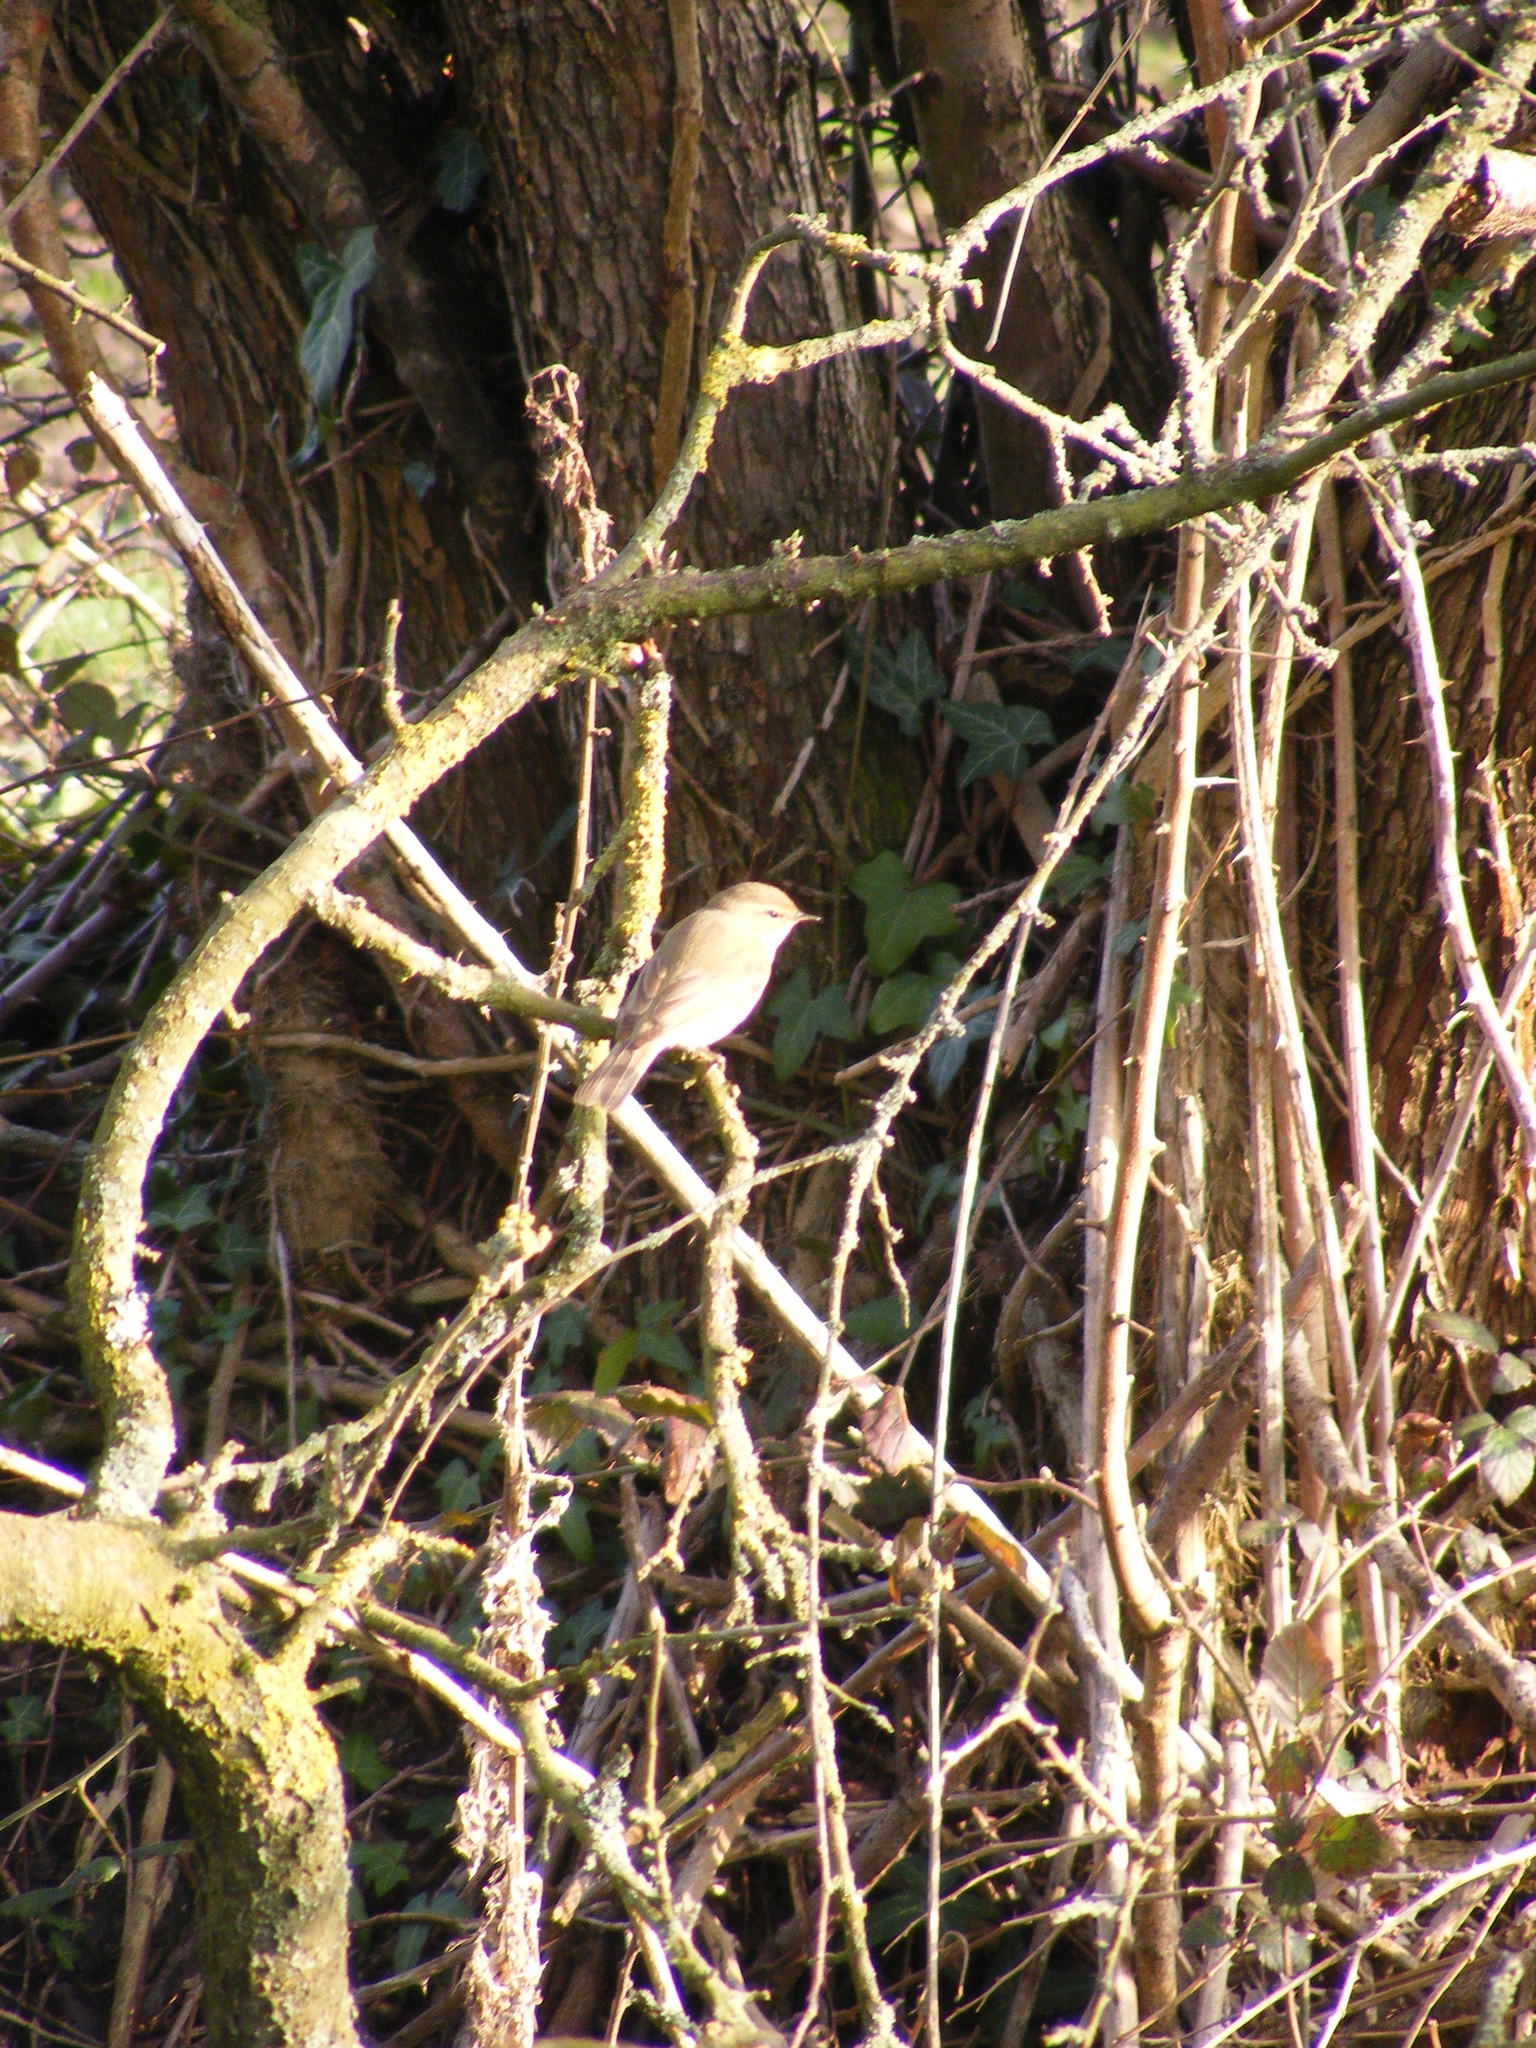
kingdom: Animalia
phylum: Chordata
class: Aves
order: Passeriformes
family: Phylloscopidae
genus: Phylloscopus
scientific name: Phylloscopus collybita
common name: Common chiffchaff
